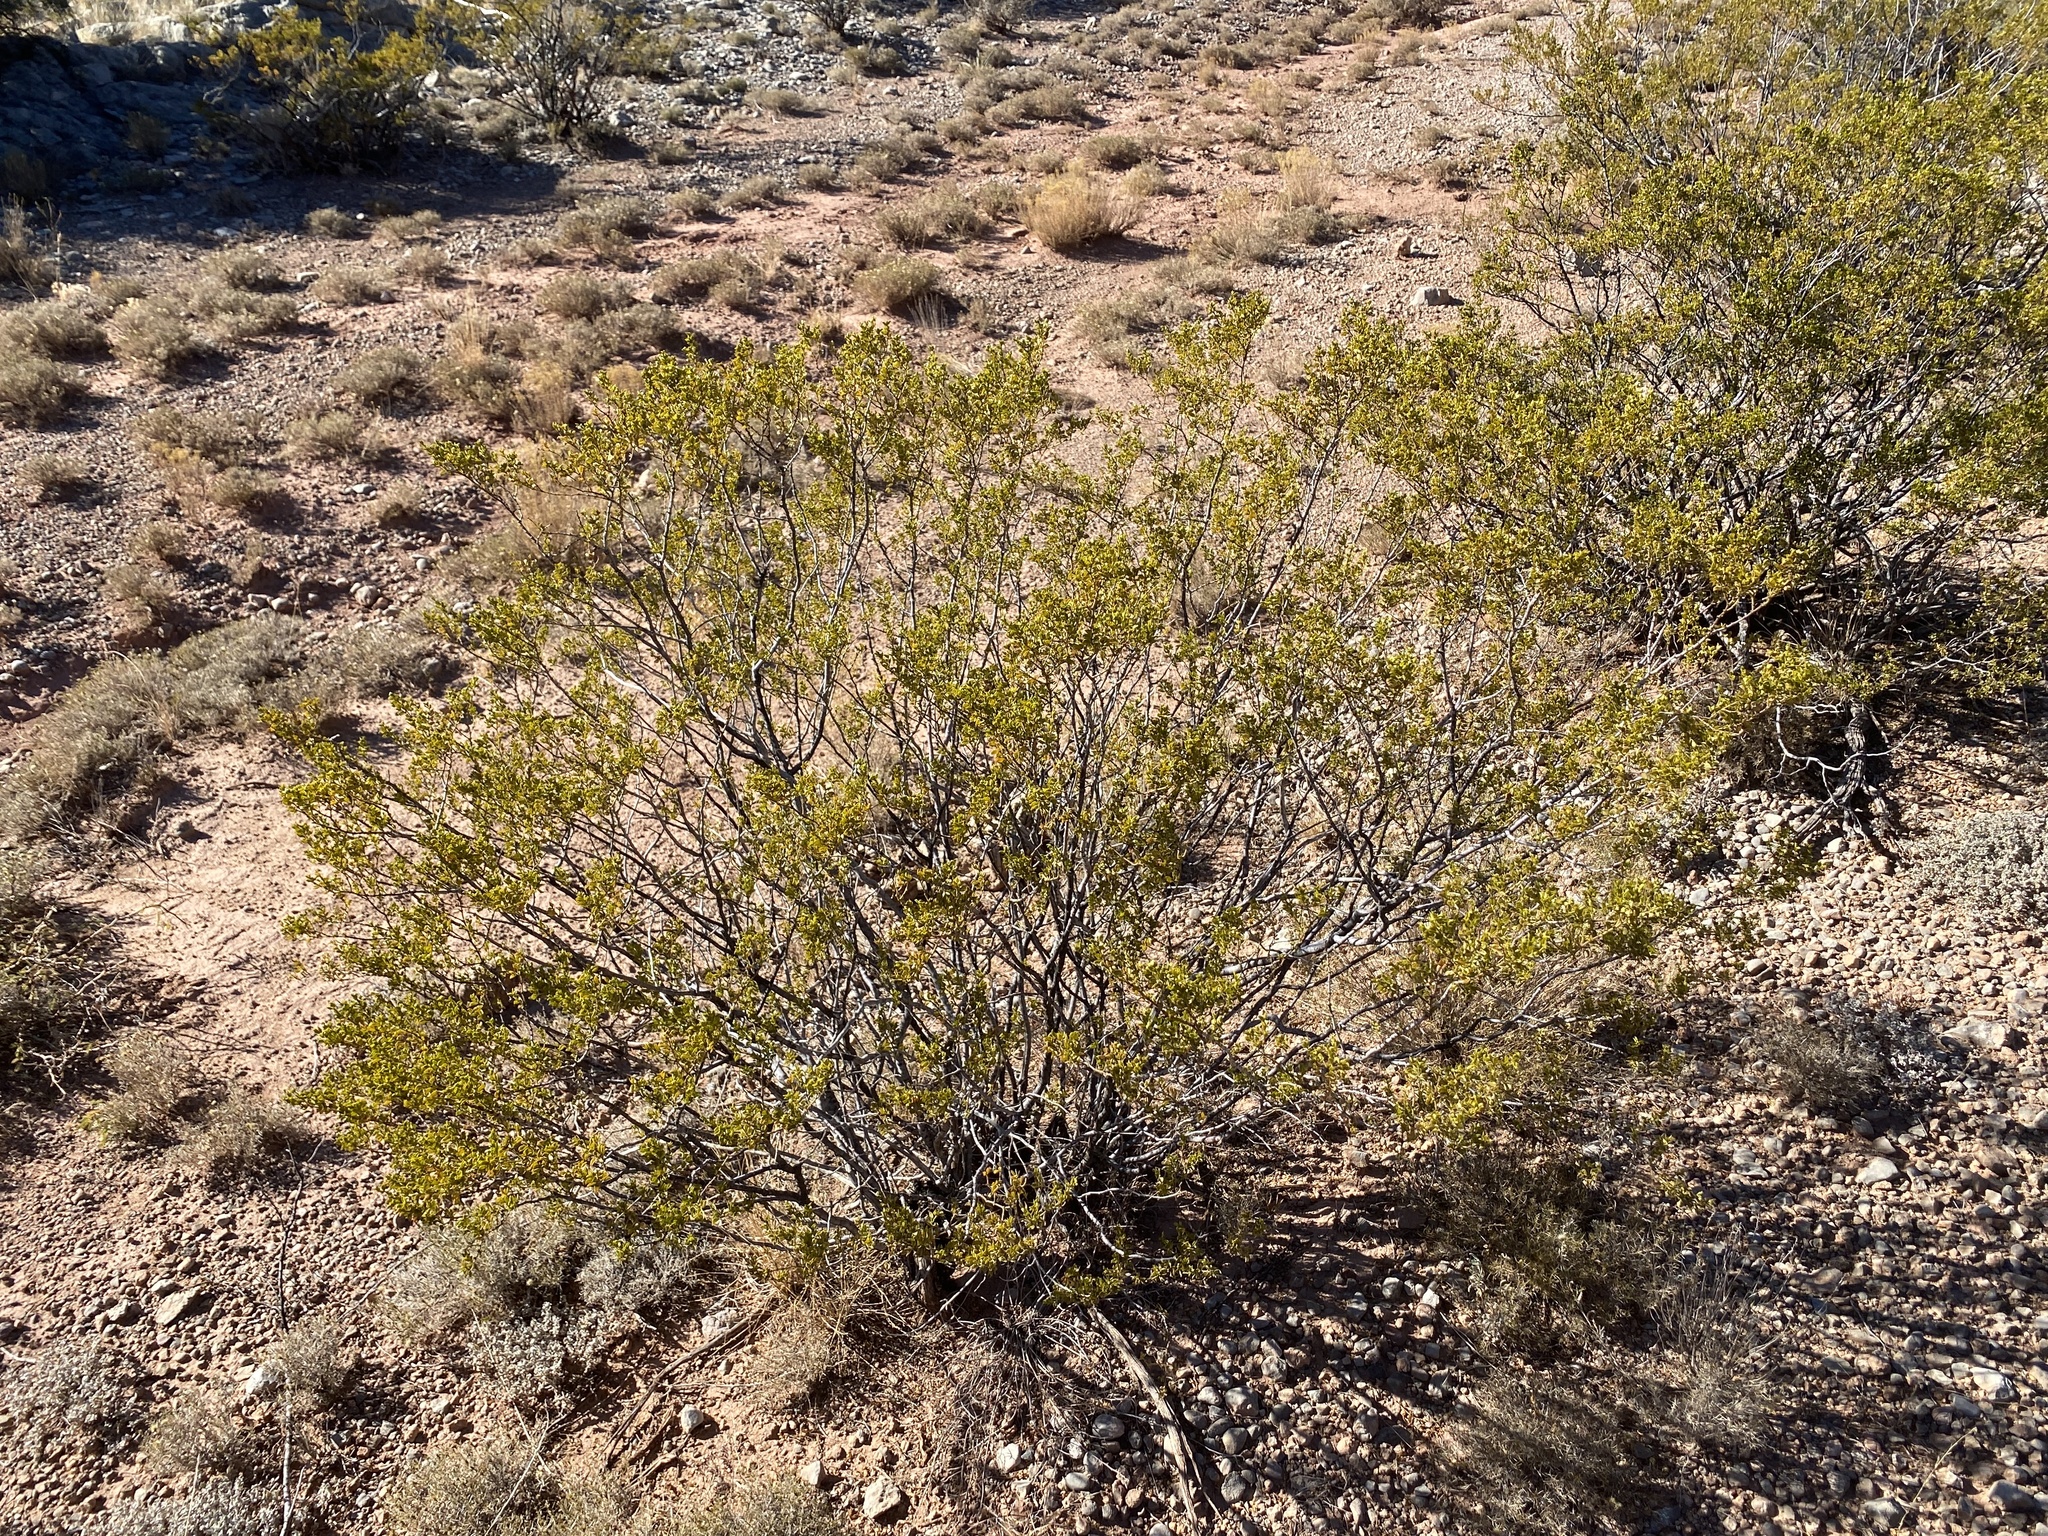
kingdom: Plantae
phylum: Tracheophyta
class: Magnoliopsida
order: Zygophyllales
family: Zygophyllaceae
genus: Larrea
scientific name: Larrea tridentata
